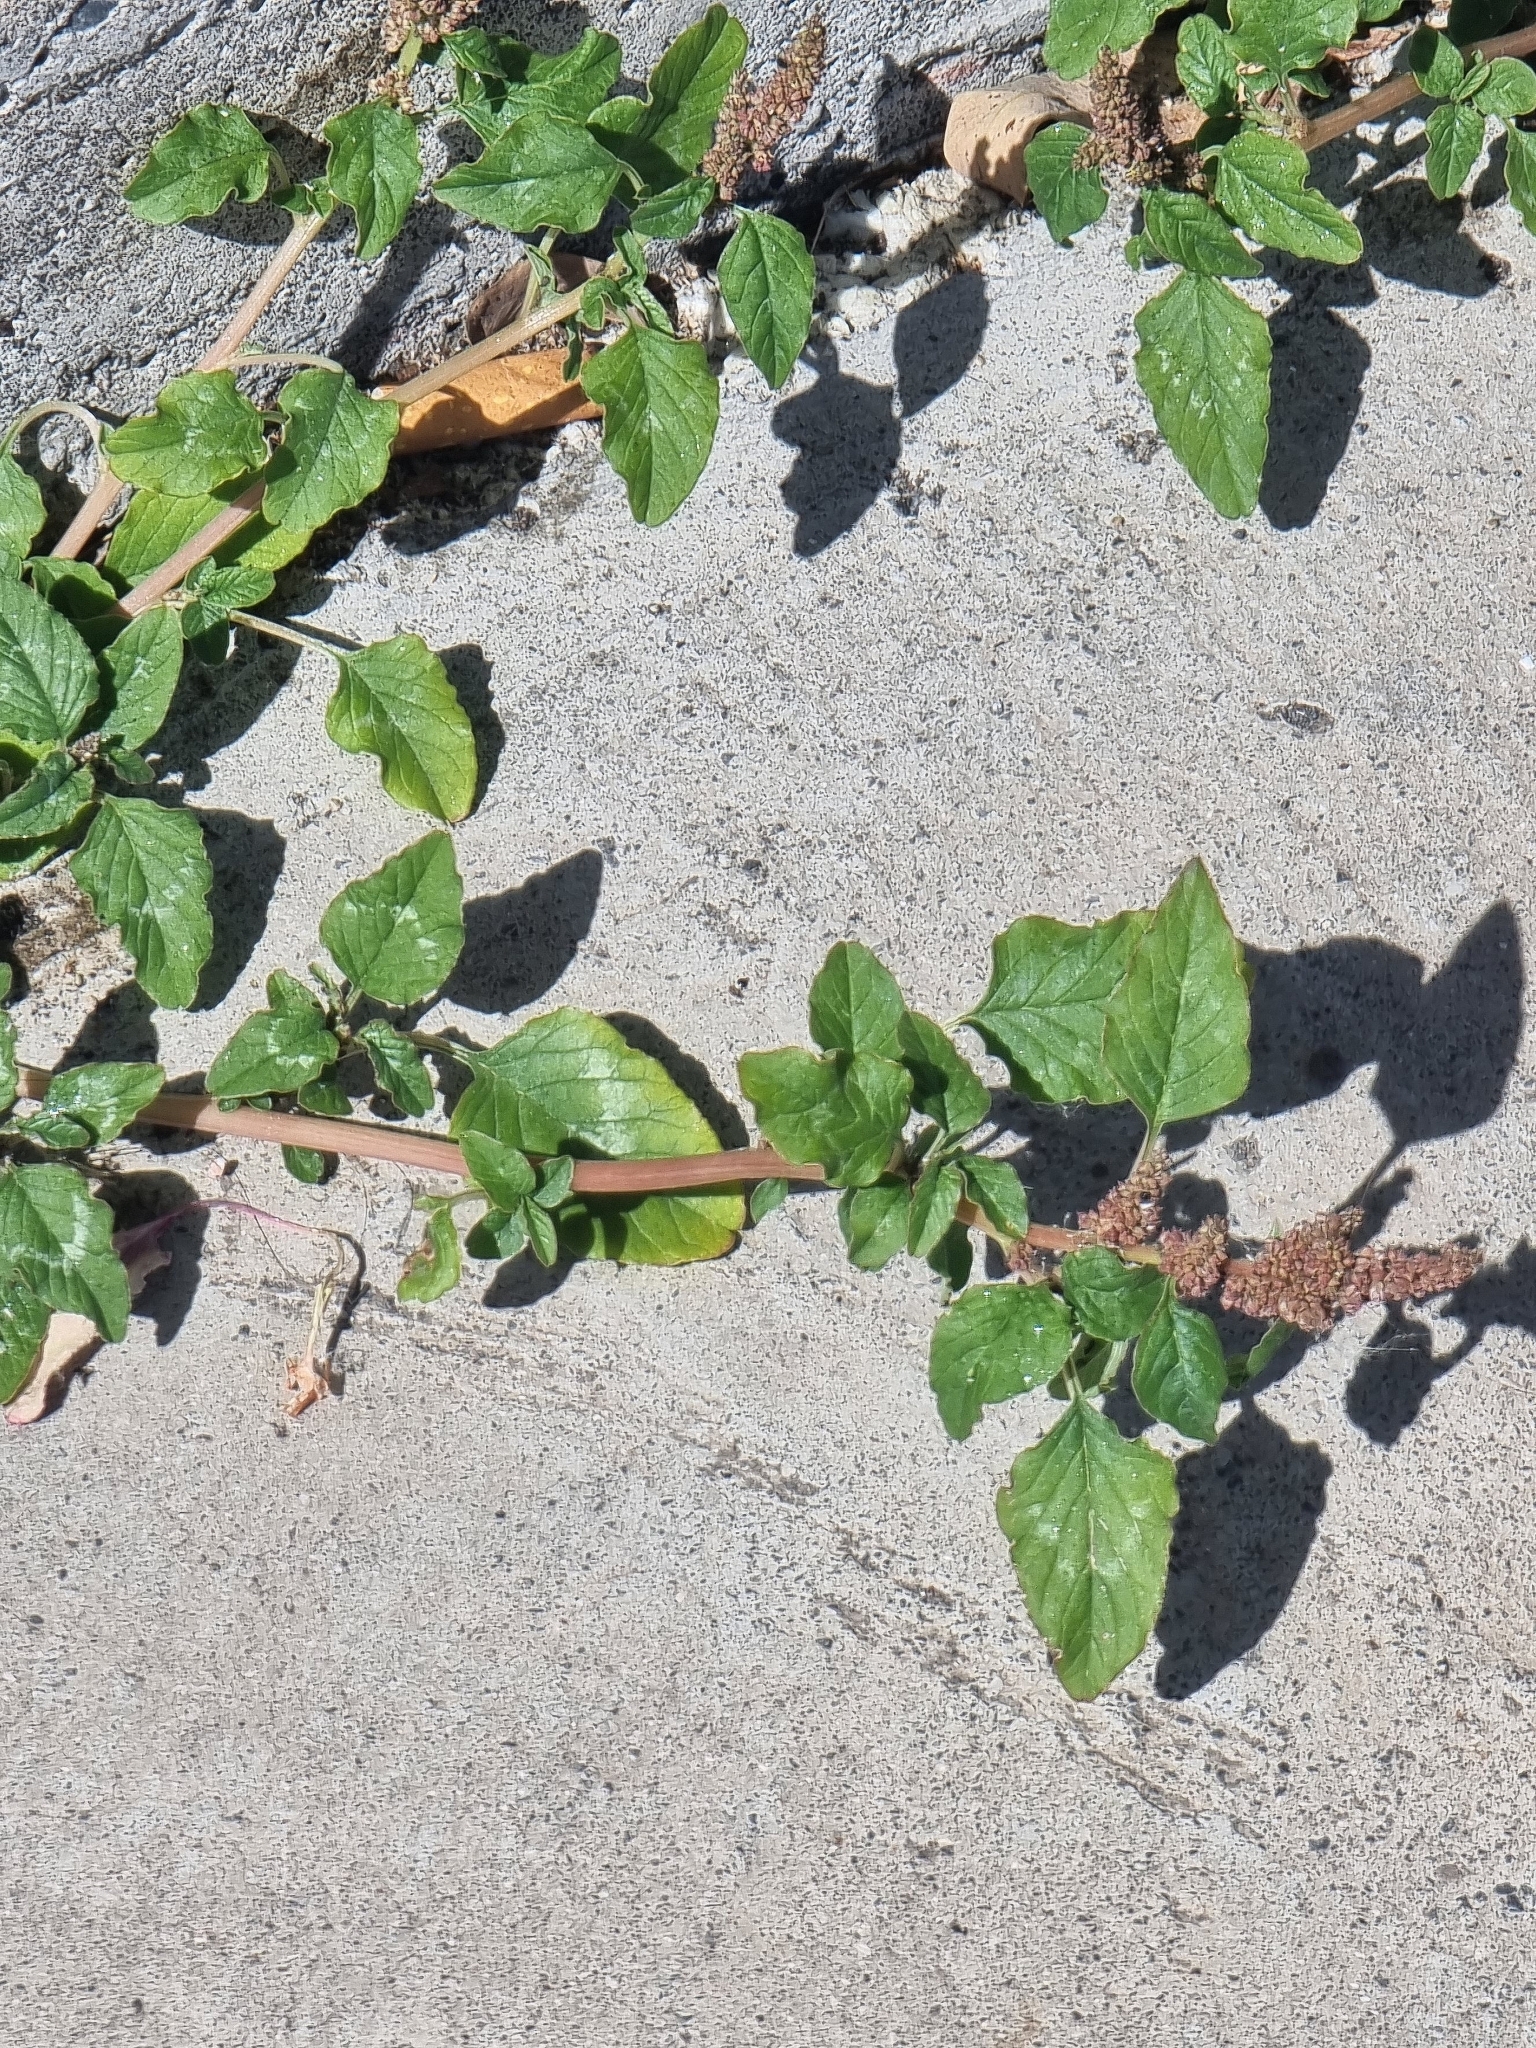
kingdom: Plantae
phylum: Tracheophyta
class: Magnoliopsida
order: Caryophyllales
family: Amaranthaceae
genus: Amaranthus
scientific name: Amaranthus viridis
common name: Slender amaranth
